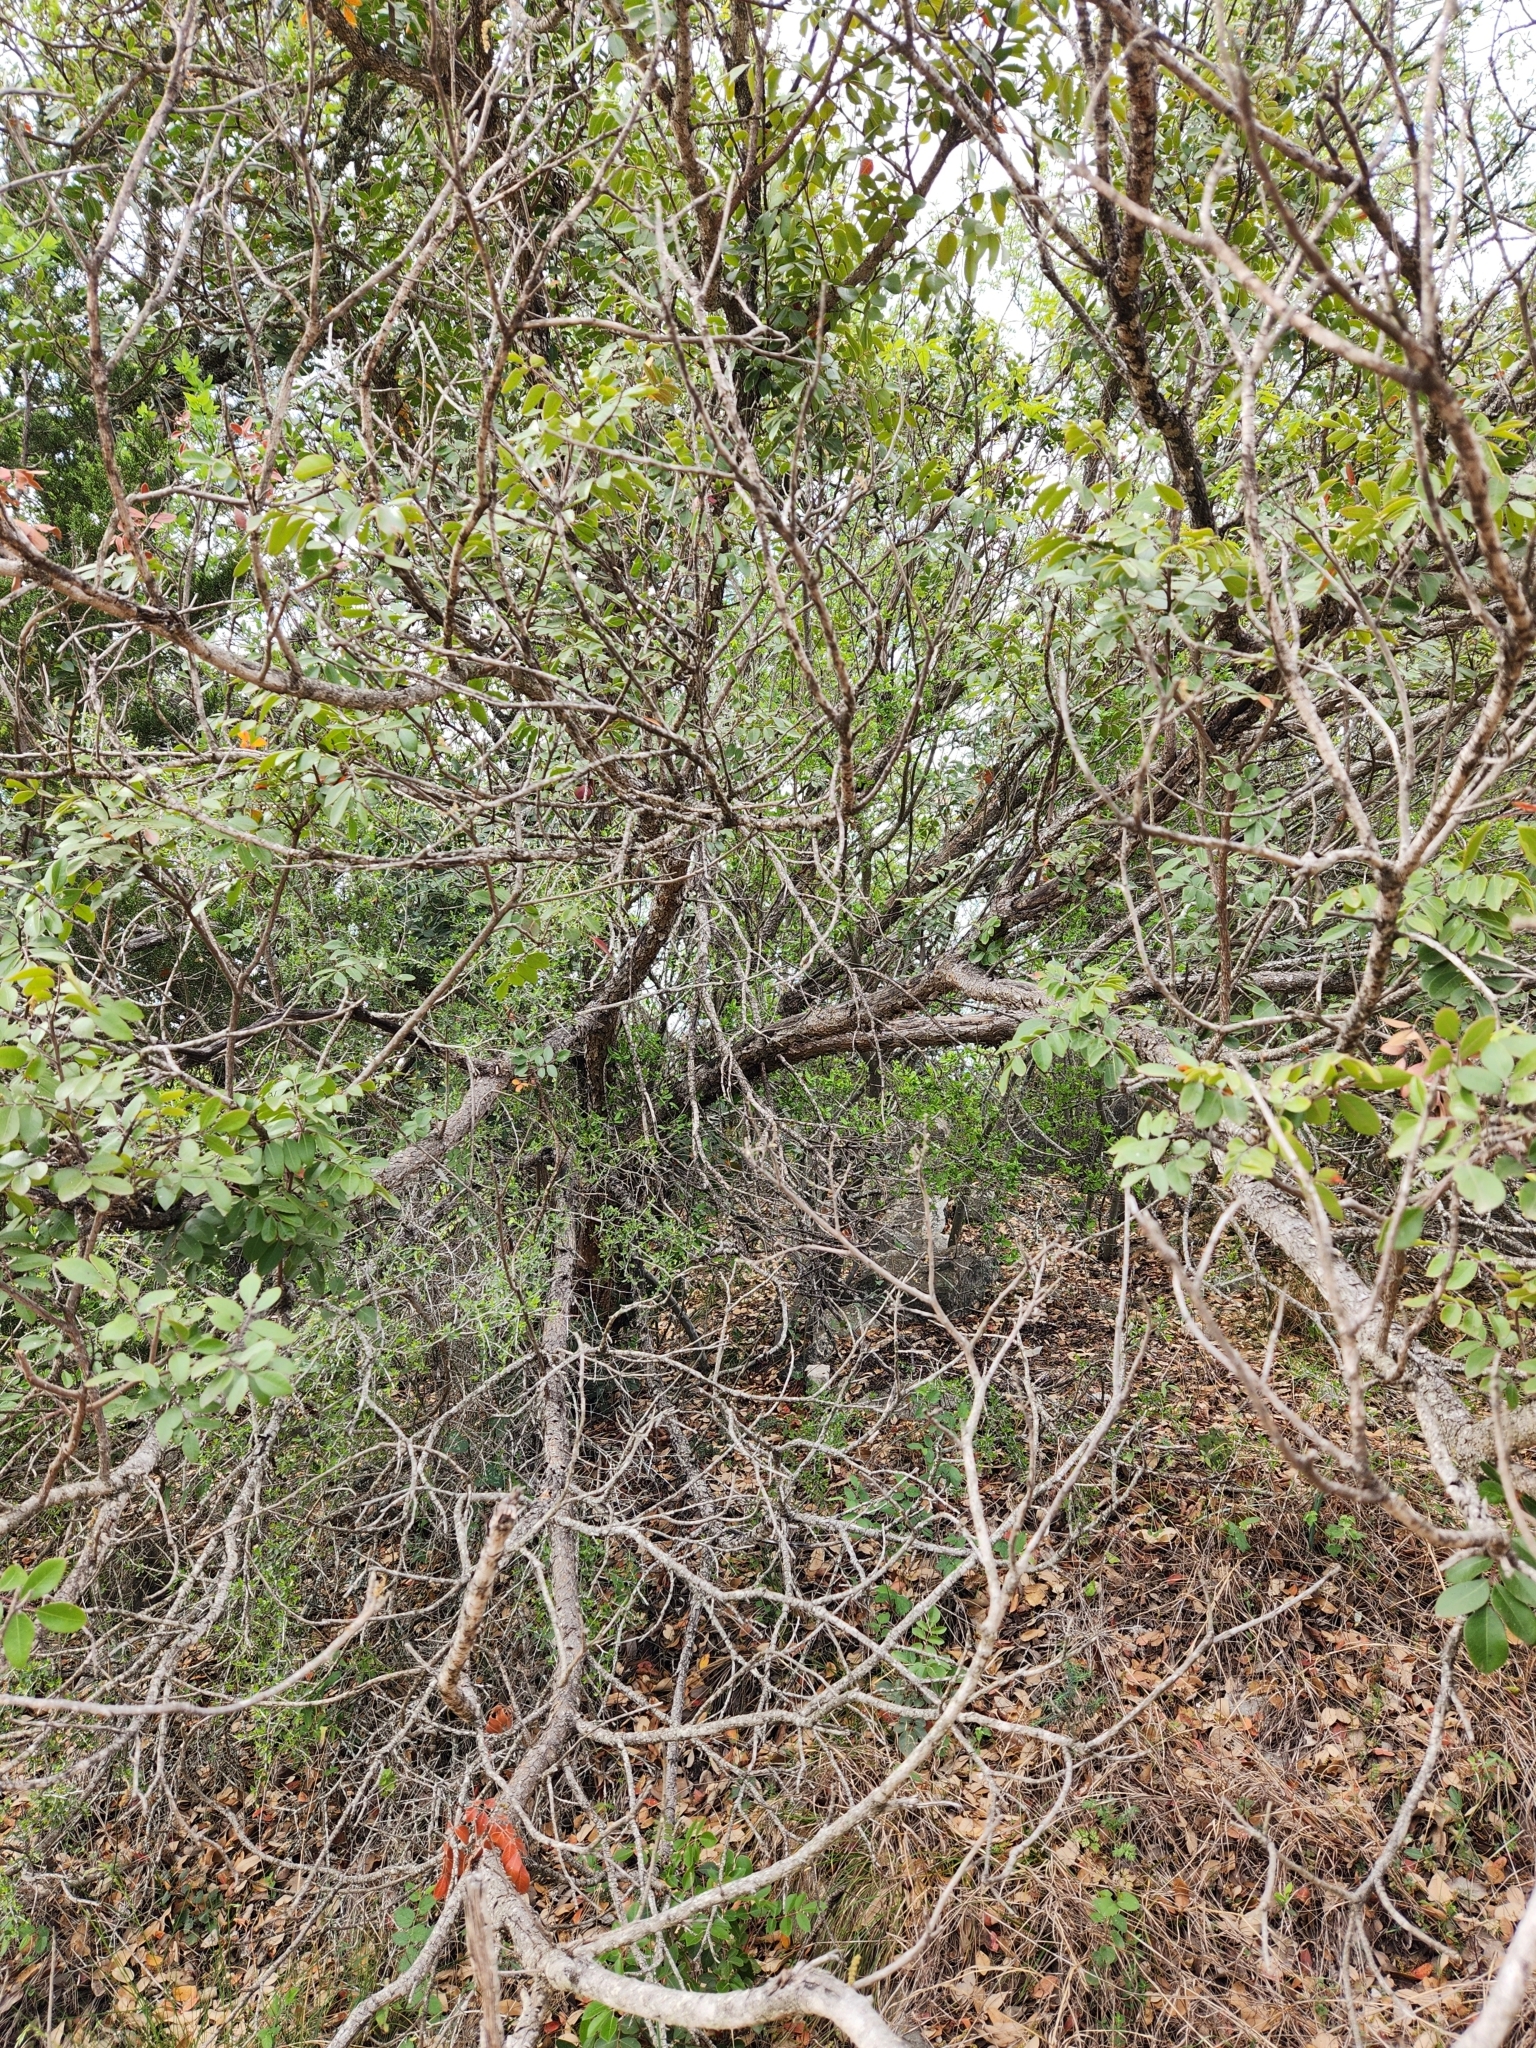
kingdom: Plantae
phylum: Tracheophyta
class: Magnoliopsida
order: Sapindales
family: Anacardiaceae
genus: Rhus
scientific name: Rhus virens
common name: Evergreen sumac
